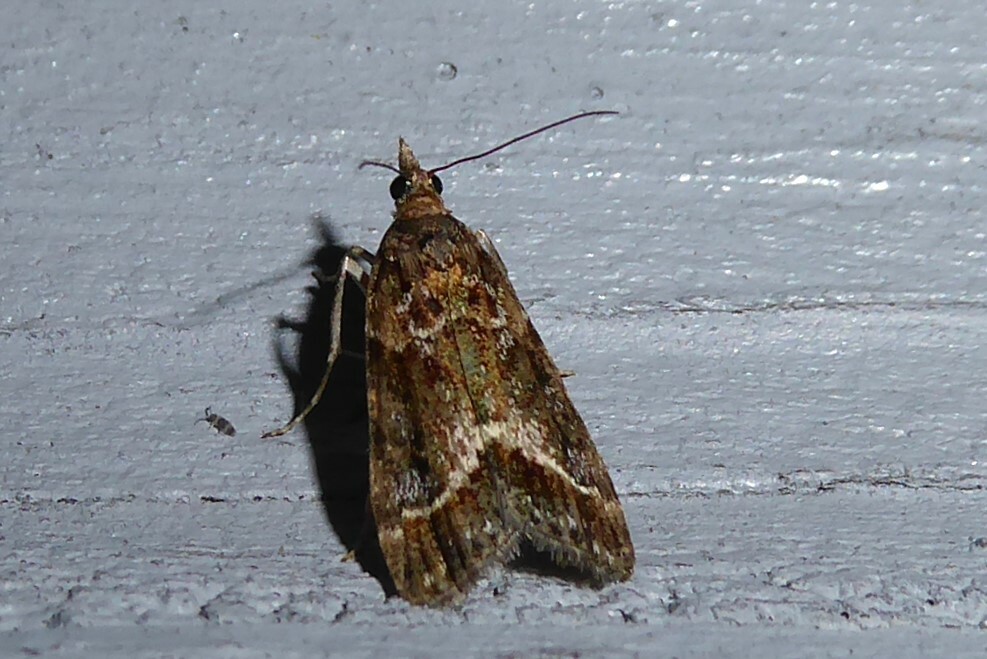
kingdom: Animalia
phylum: Arthropoda
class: Insecta
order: Lepidoptera
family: Crambidae
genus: Eudonia
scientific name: Eudonia legnota
